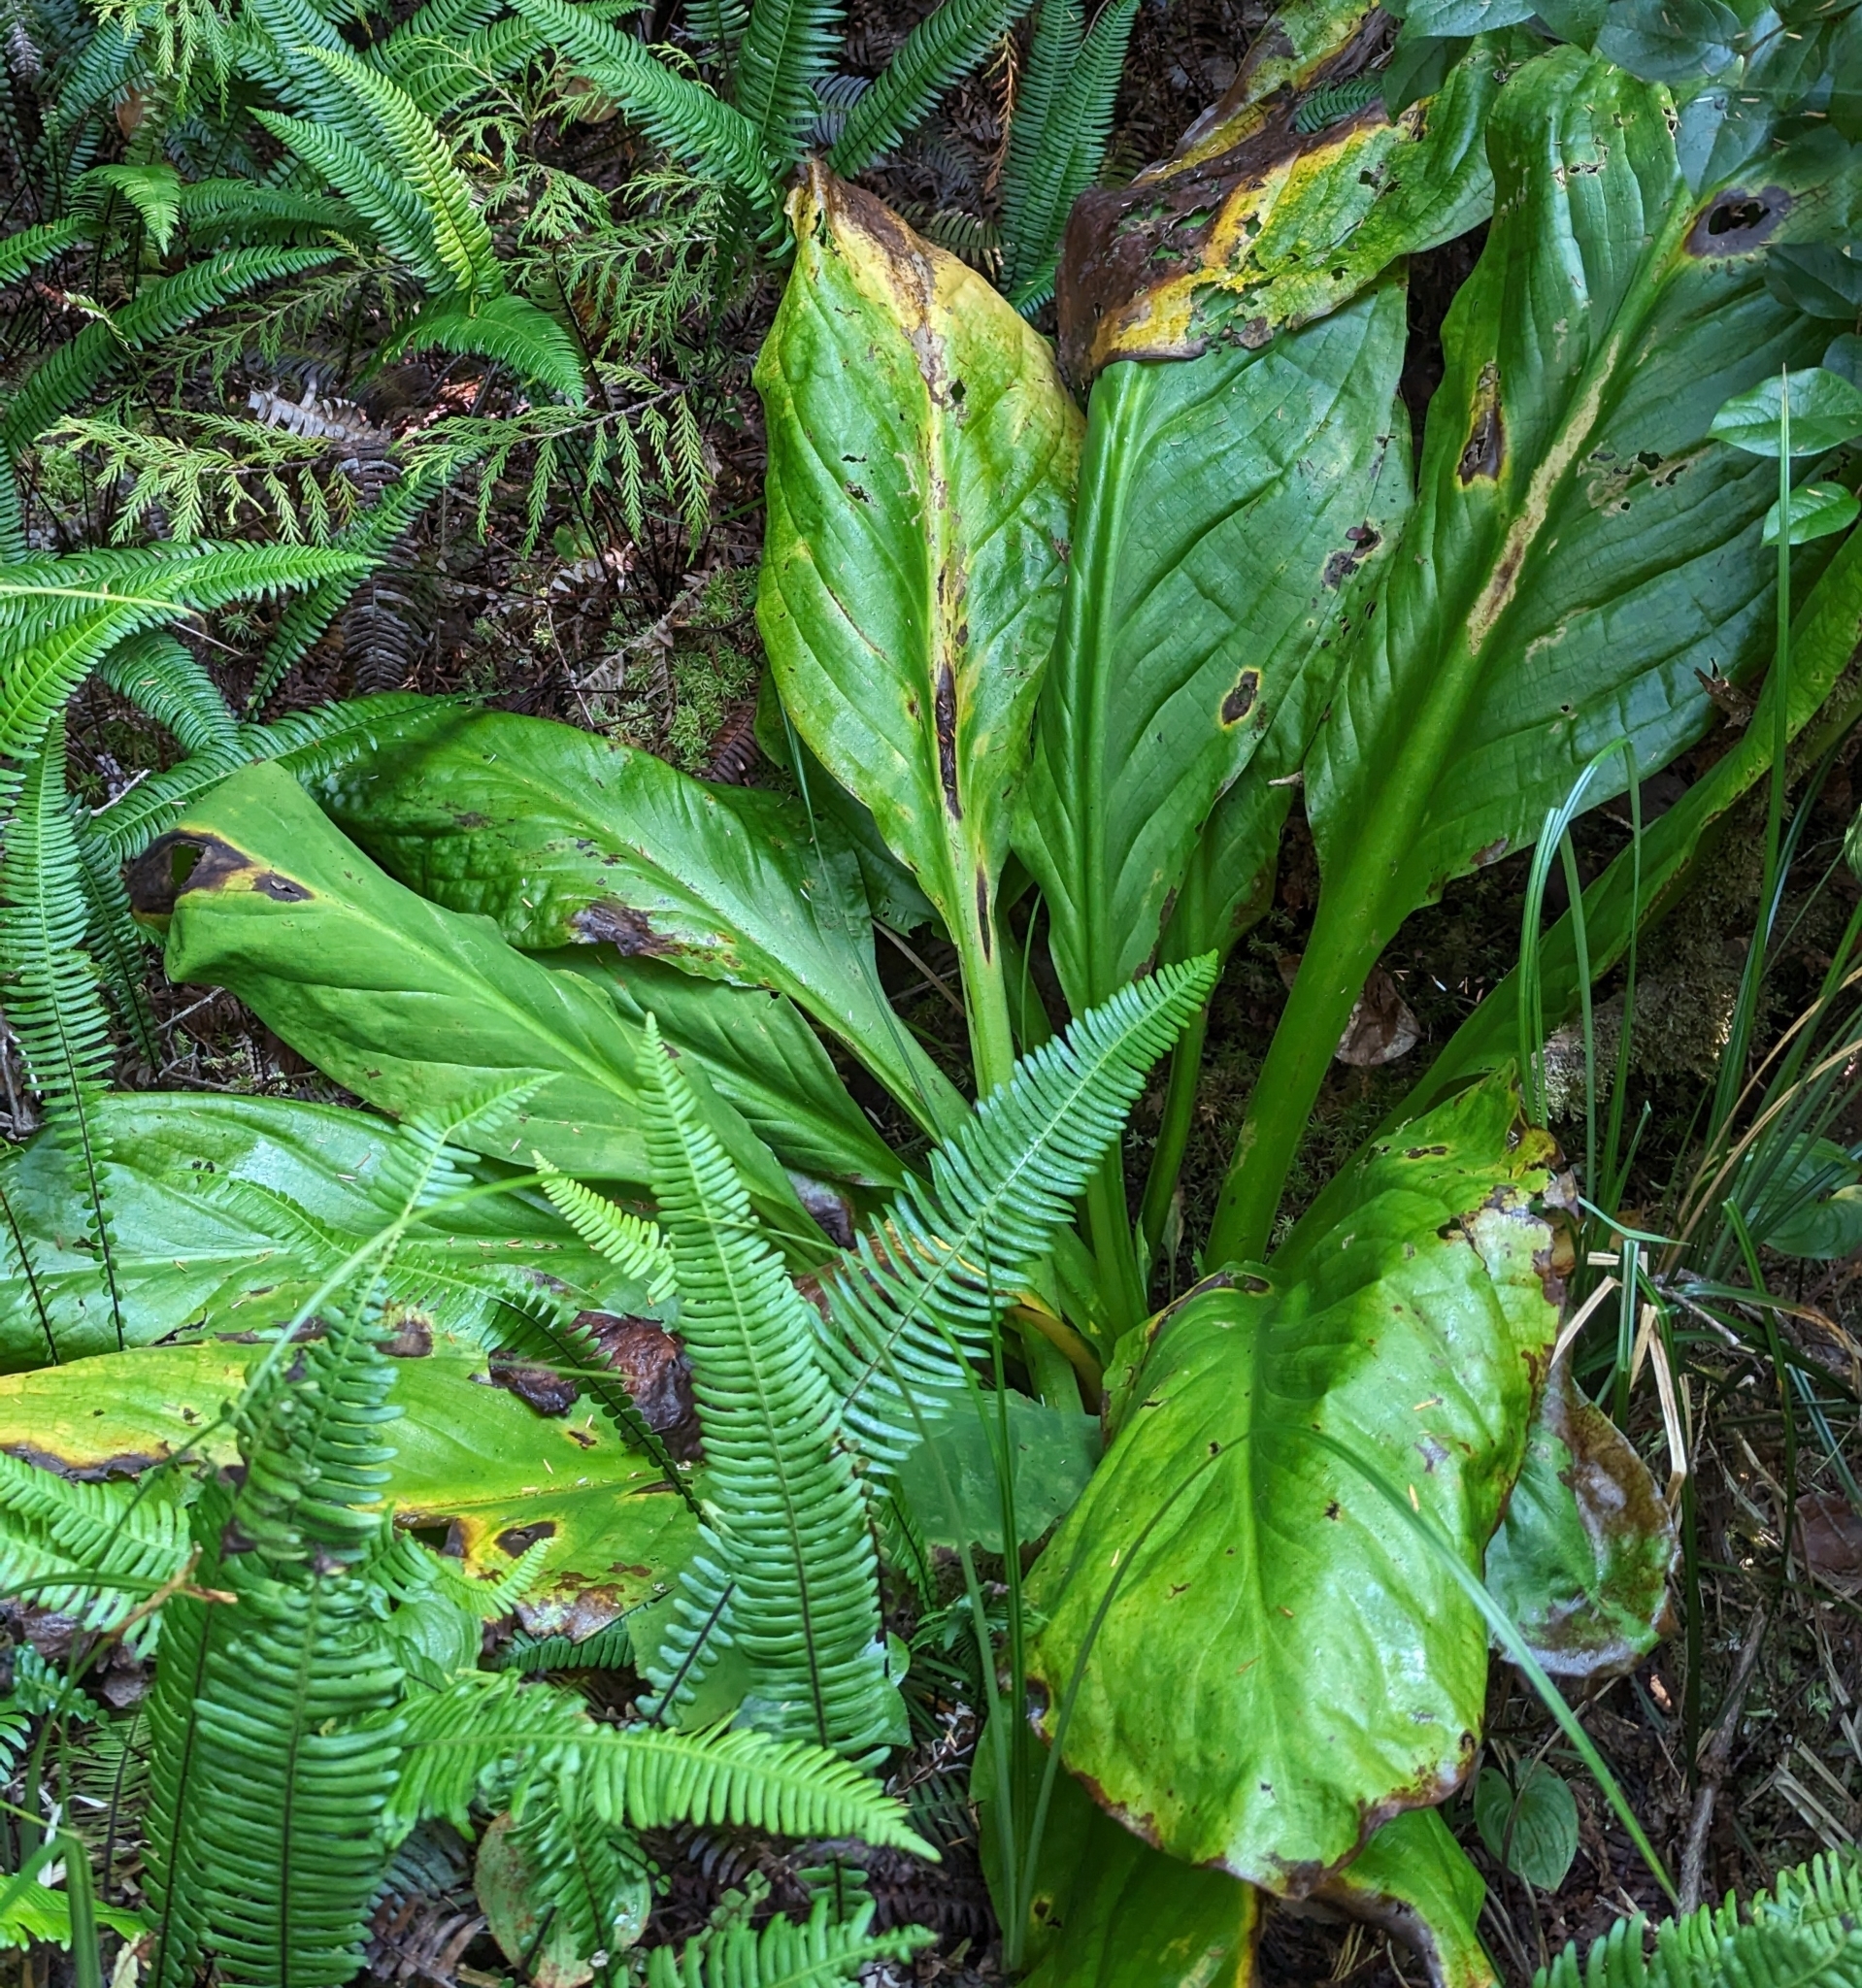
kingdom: Plantae
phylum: Tracheophyta
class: Liliopsida
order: Alismatales
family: Araceae
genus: Lysichiton
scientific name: Lysichiton americanus
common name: American skunk cabbage
